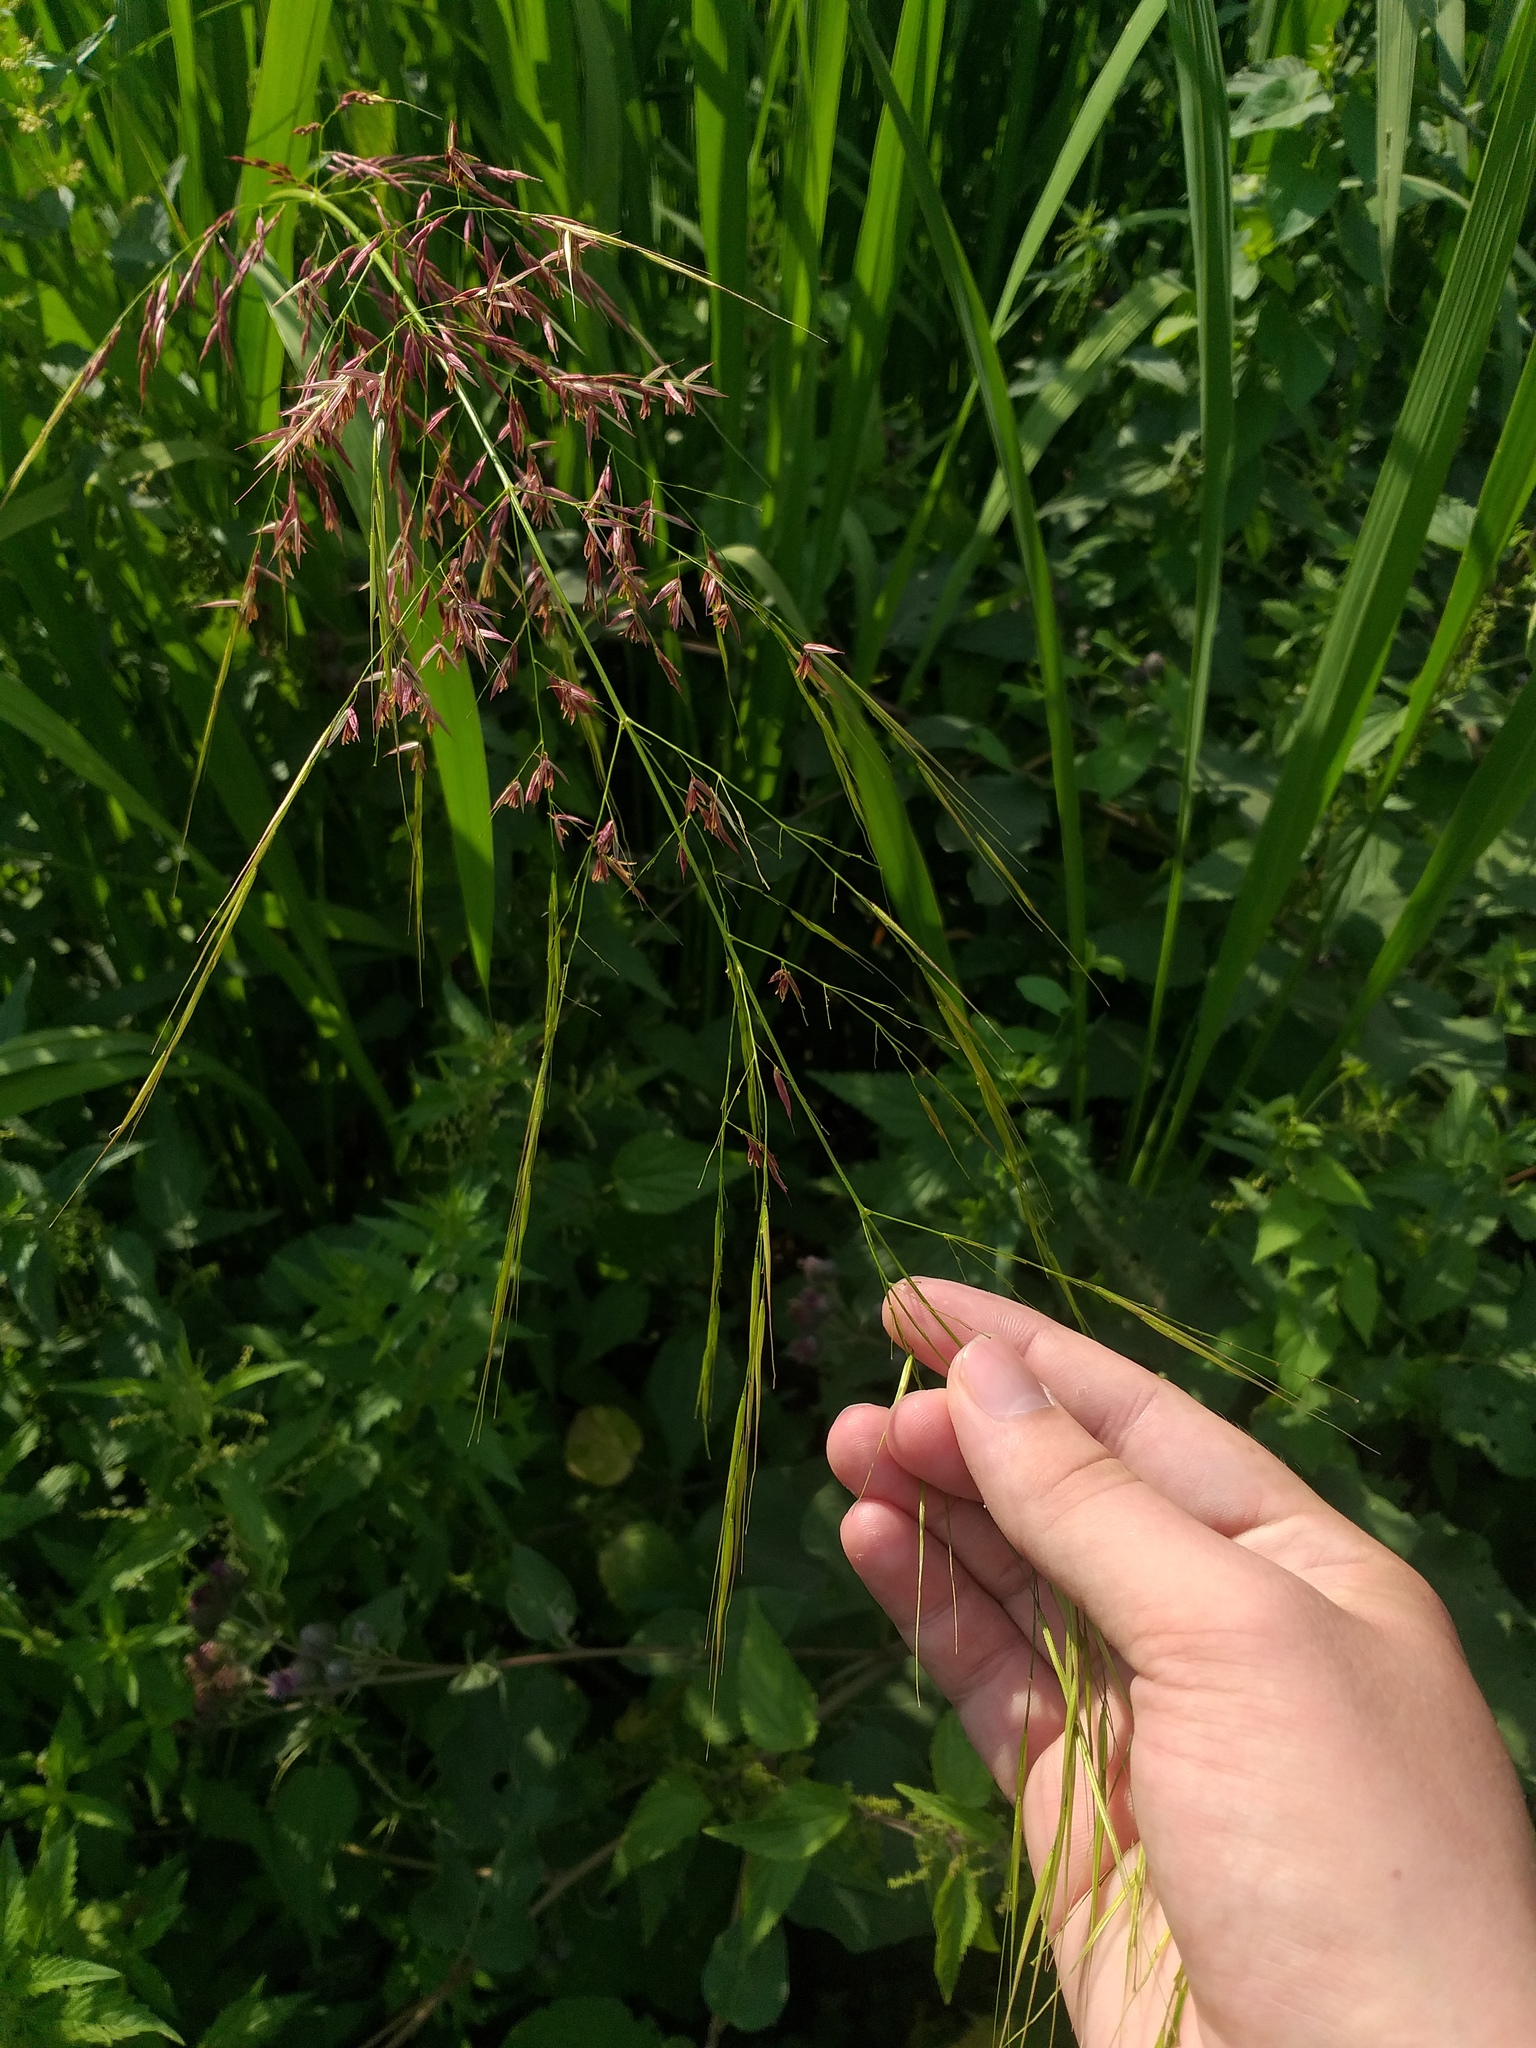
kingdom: Plantae
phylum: Tracheophyta
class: Liliopsida
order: Poales
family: Poaceae
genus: Zizania
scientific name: Zizania latifolia
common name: Manchurian wildrice
